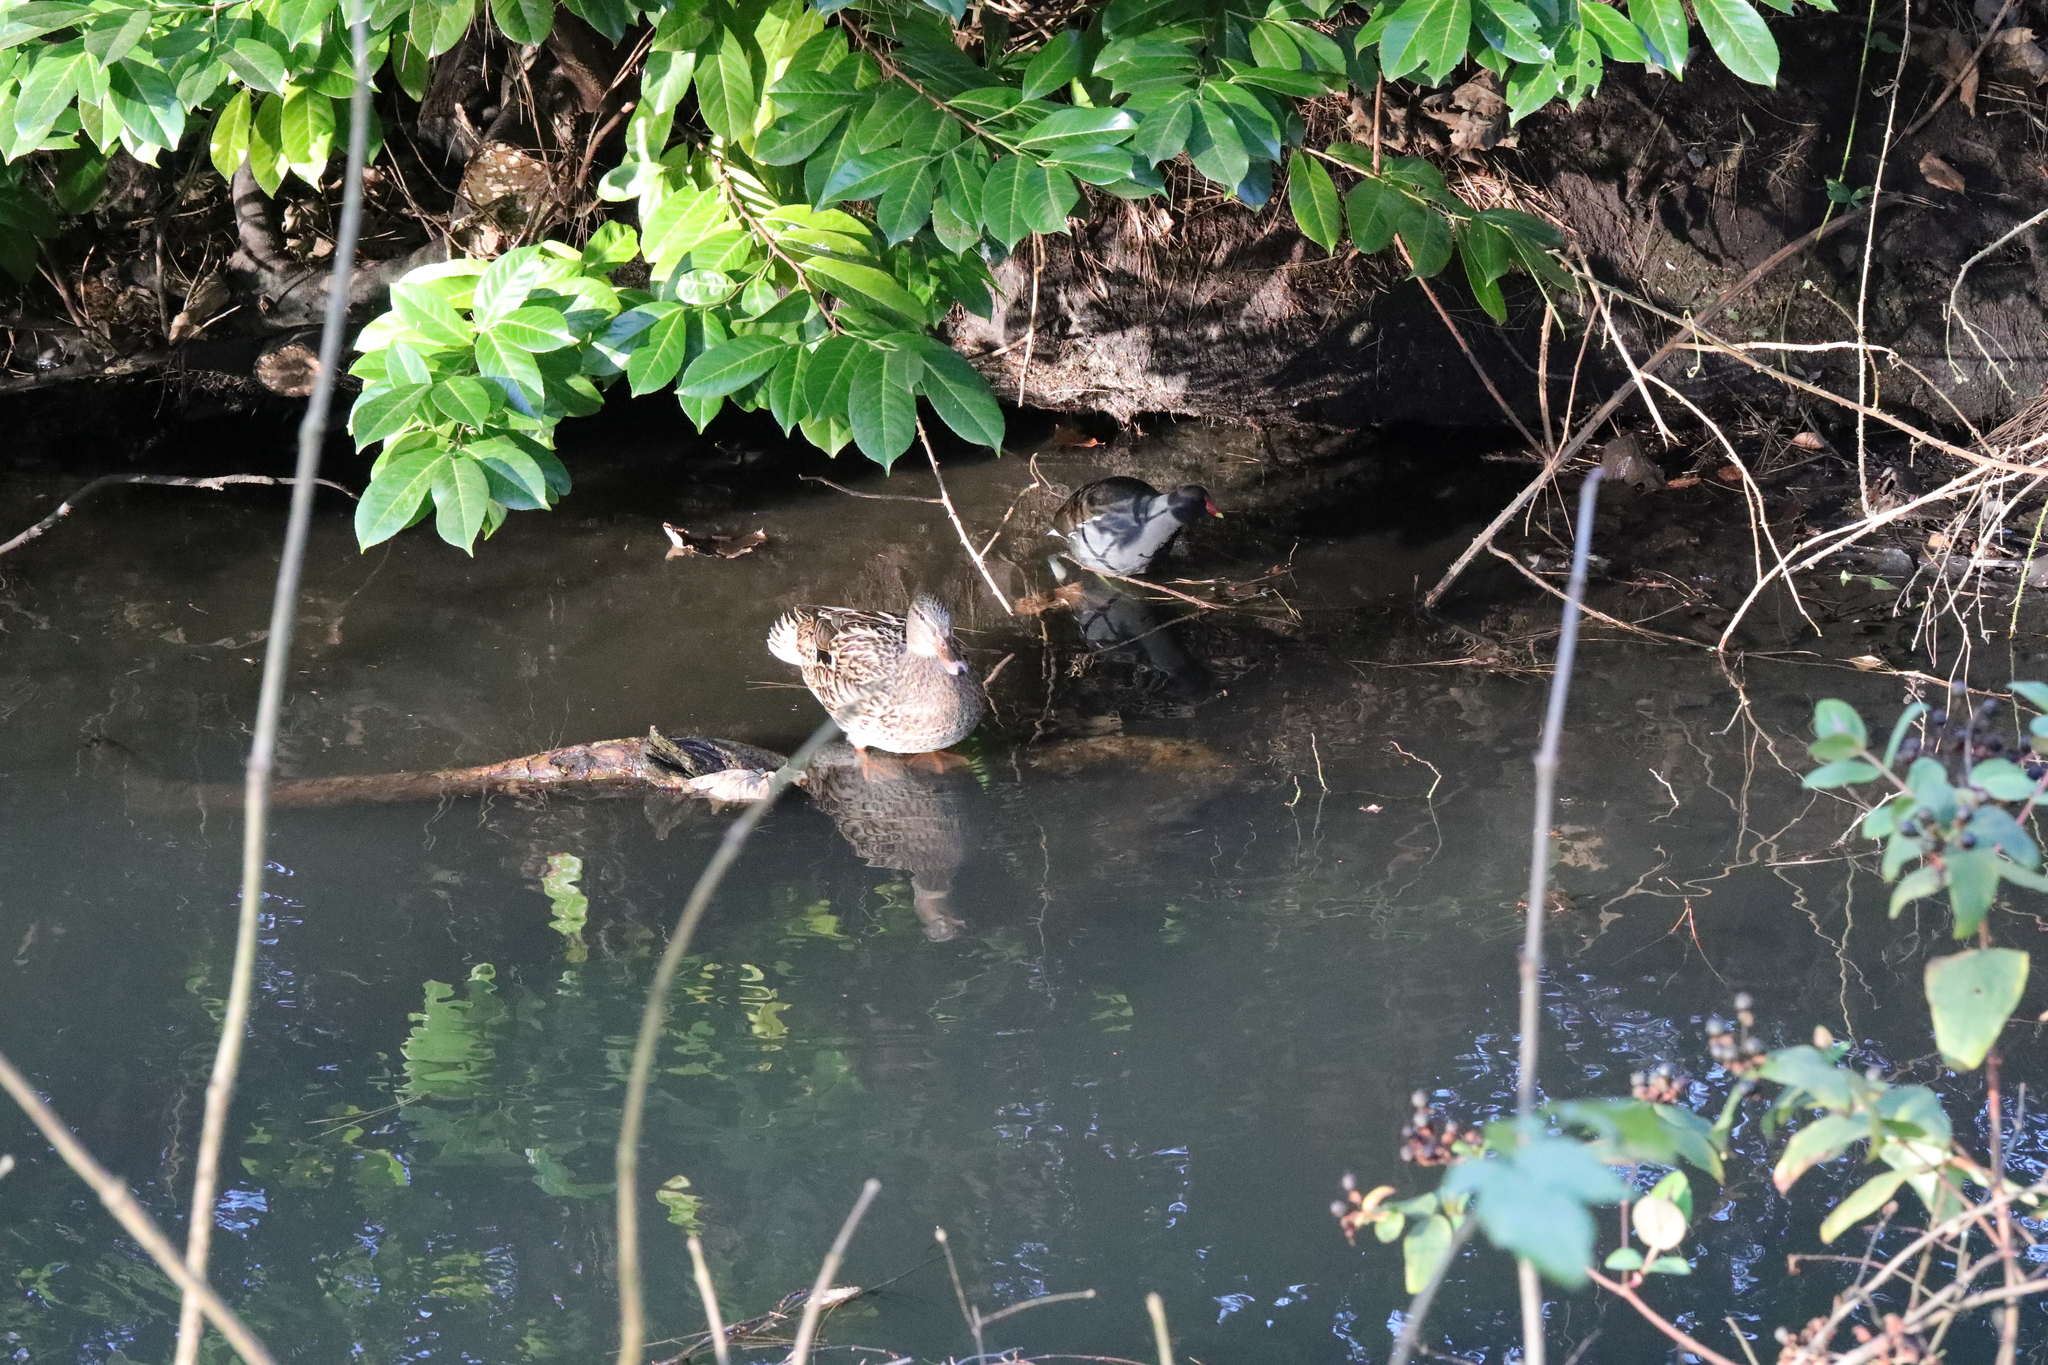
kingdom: Animalia
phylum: Chordata
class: Aves
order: Gruiformes
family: Rallidae
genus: Gallinula
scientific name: Gallinula chloropus
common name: Common moorhen
